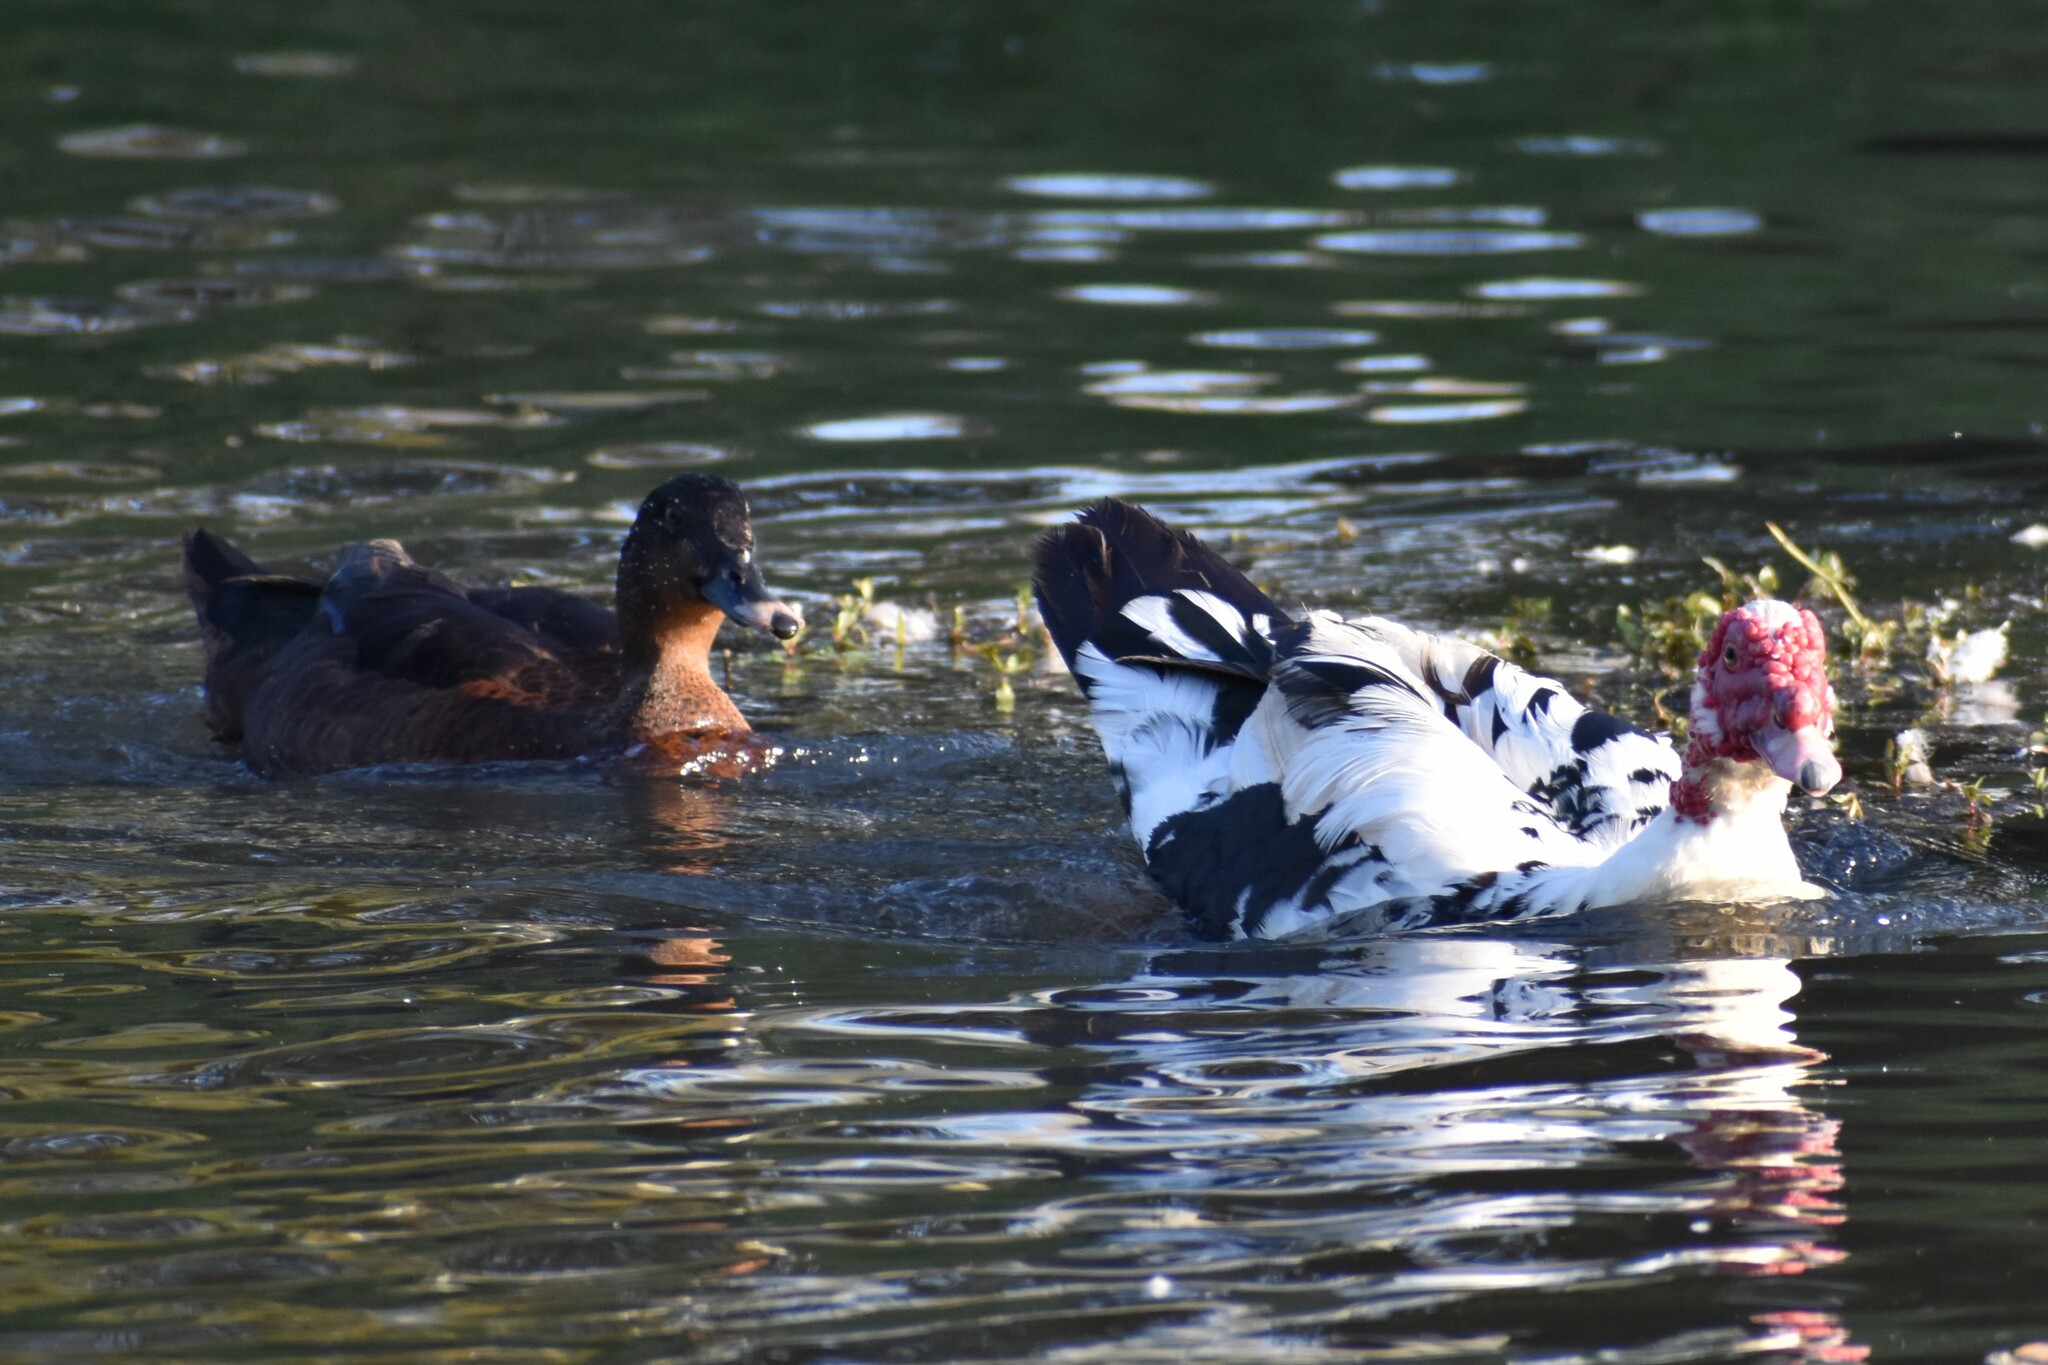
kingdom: Animalia
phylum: Chordata
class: Aves
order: Anseriformes
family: Anatidae
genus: Cairina
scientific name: Cairina moschata
